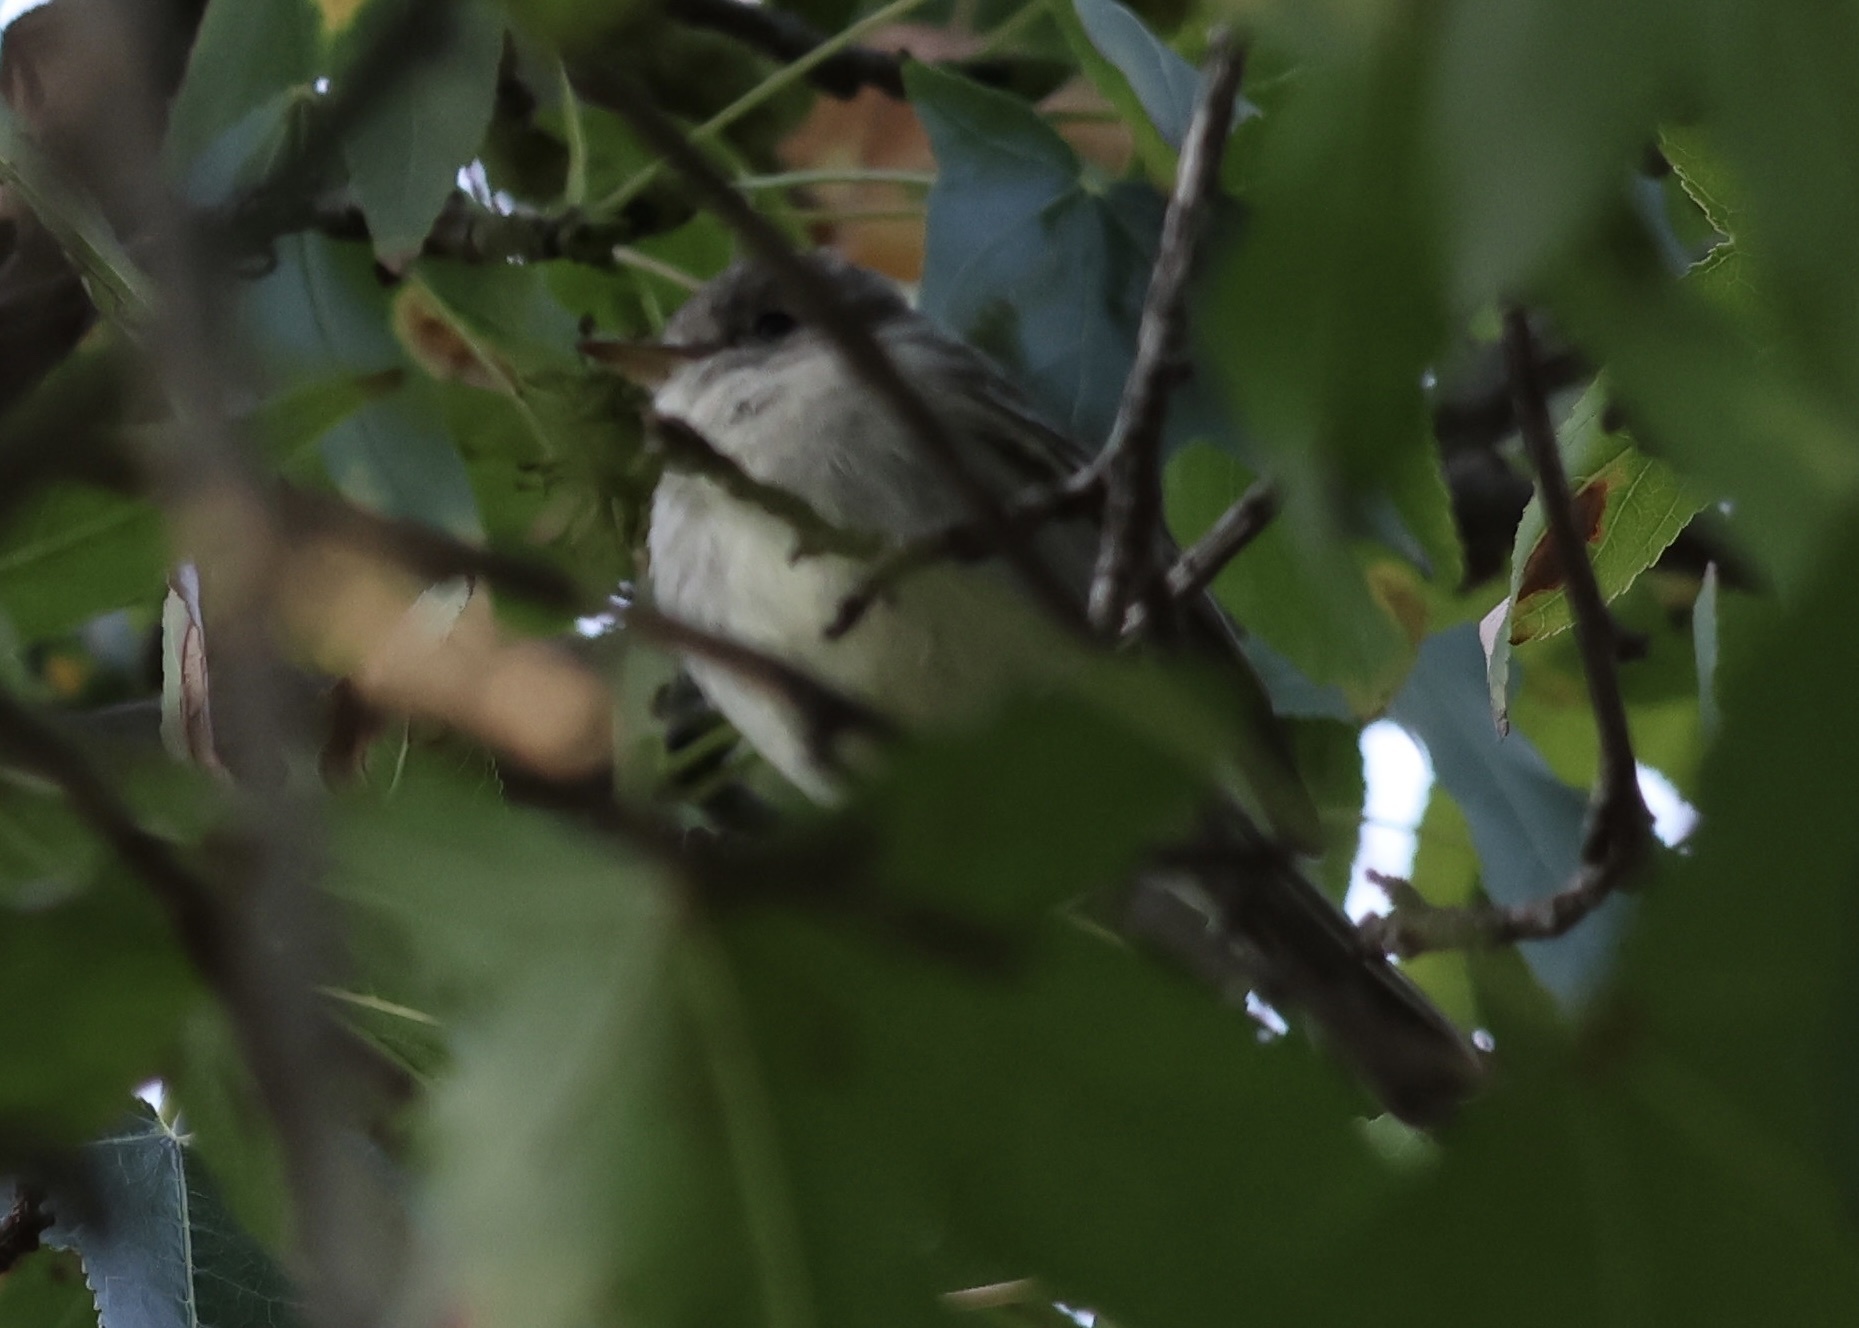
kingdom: Animalia
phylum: Chordata
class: Aves
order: Passeriformes
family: Tyrannidae
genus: Empidonax
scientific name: Empidonax wrightii
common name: Gray flycatcher
